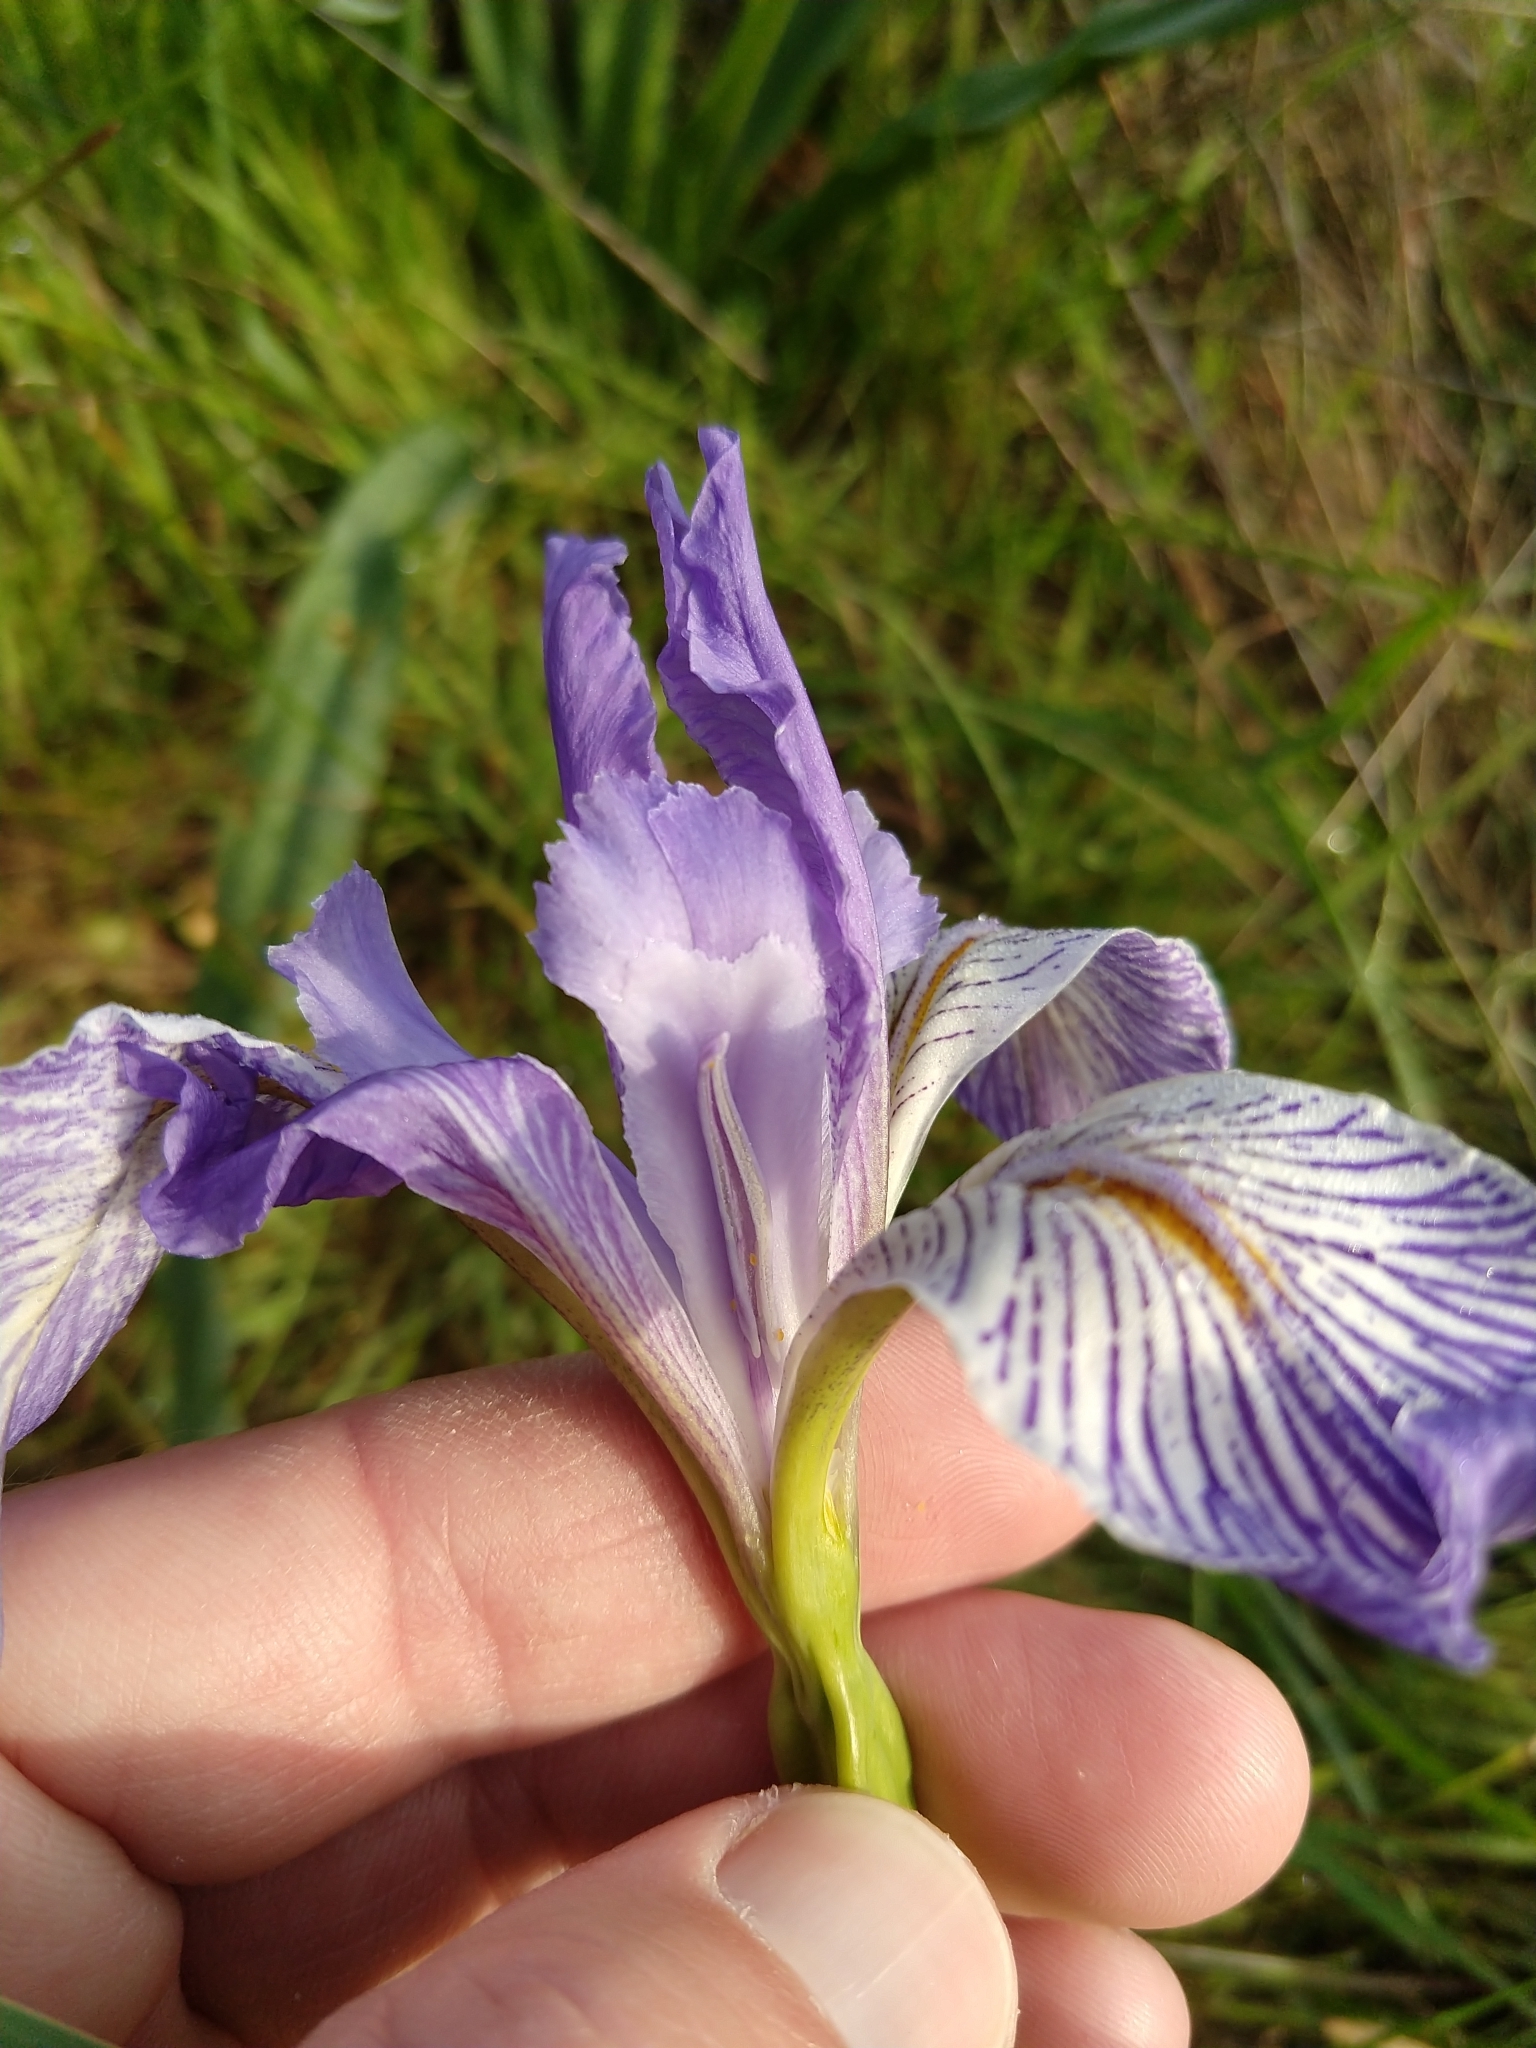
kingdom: Plantae
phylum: Tracheophyta
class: Liliopsida
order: Asparagales
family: Iridaceae
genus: Iris
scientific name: Iris longipetala
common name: Long-petal iris
